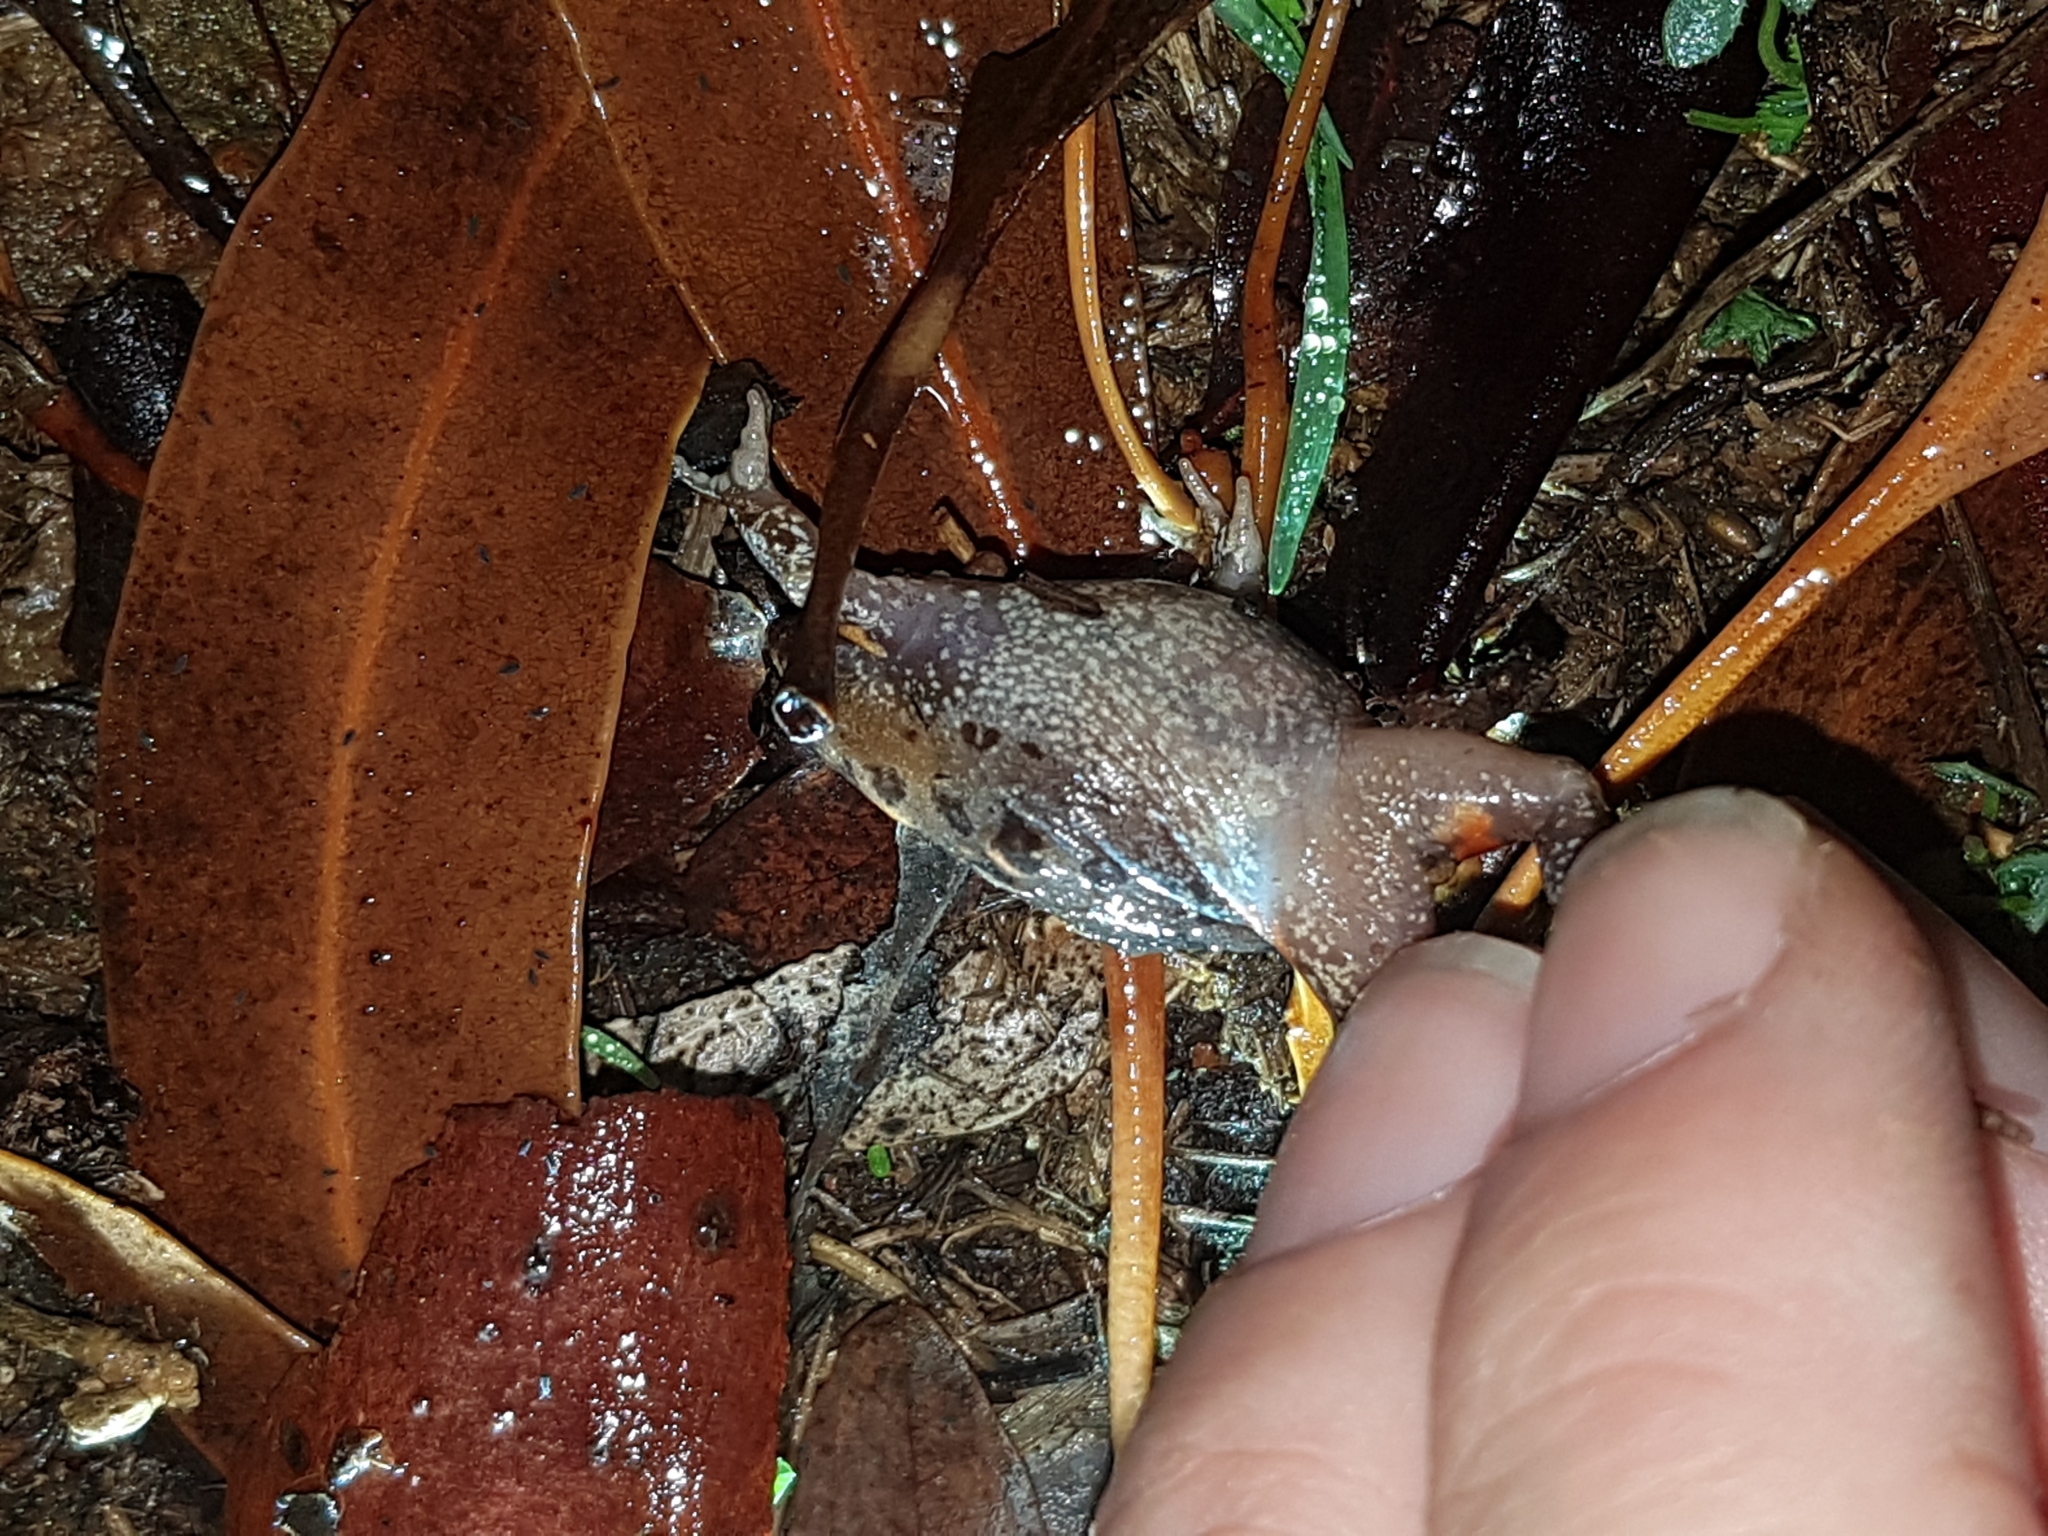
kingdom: Animalia
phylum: Chordata
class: Amphibia
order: Anura
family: Myobatrachidae
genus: Uperoleia
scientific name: Uperoleia laevigata
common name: Smooth toadlet
